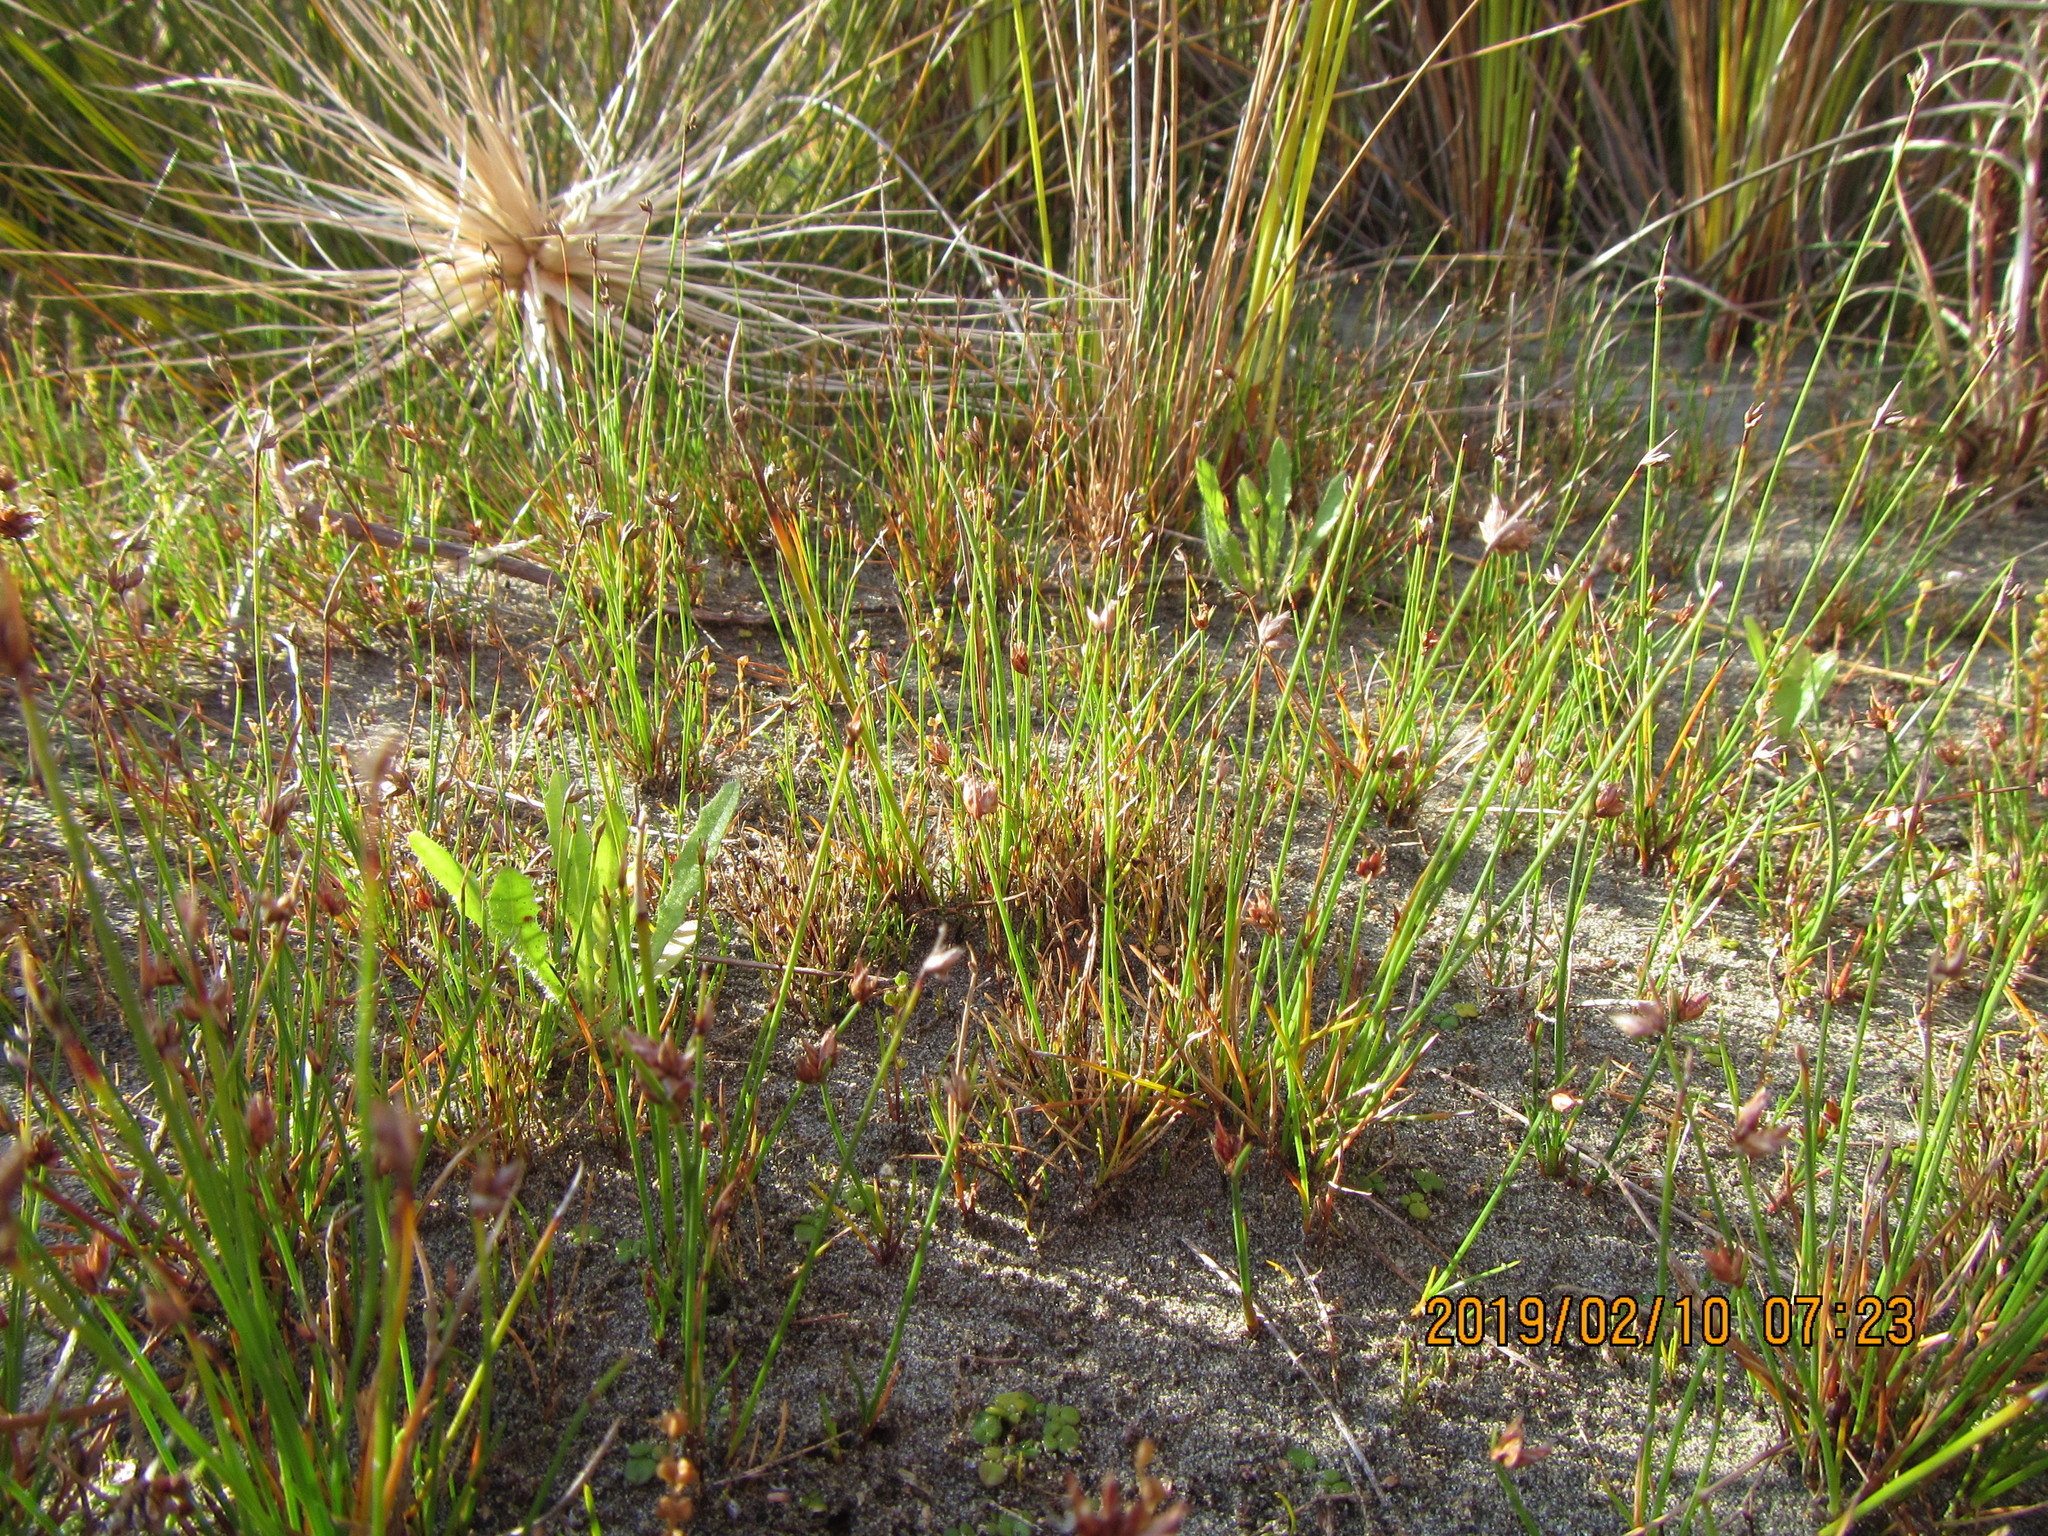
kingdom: Plantae
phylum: Tracheophyta
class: Liliopsida
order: Poales
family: Cyperaceae
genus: Schoenus
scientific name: Schoenus nitens
